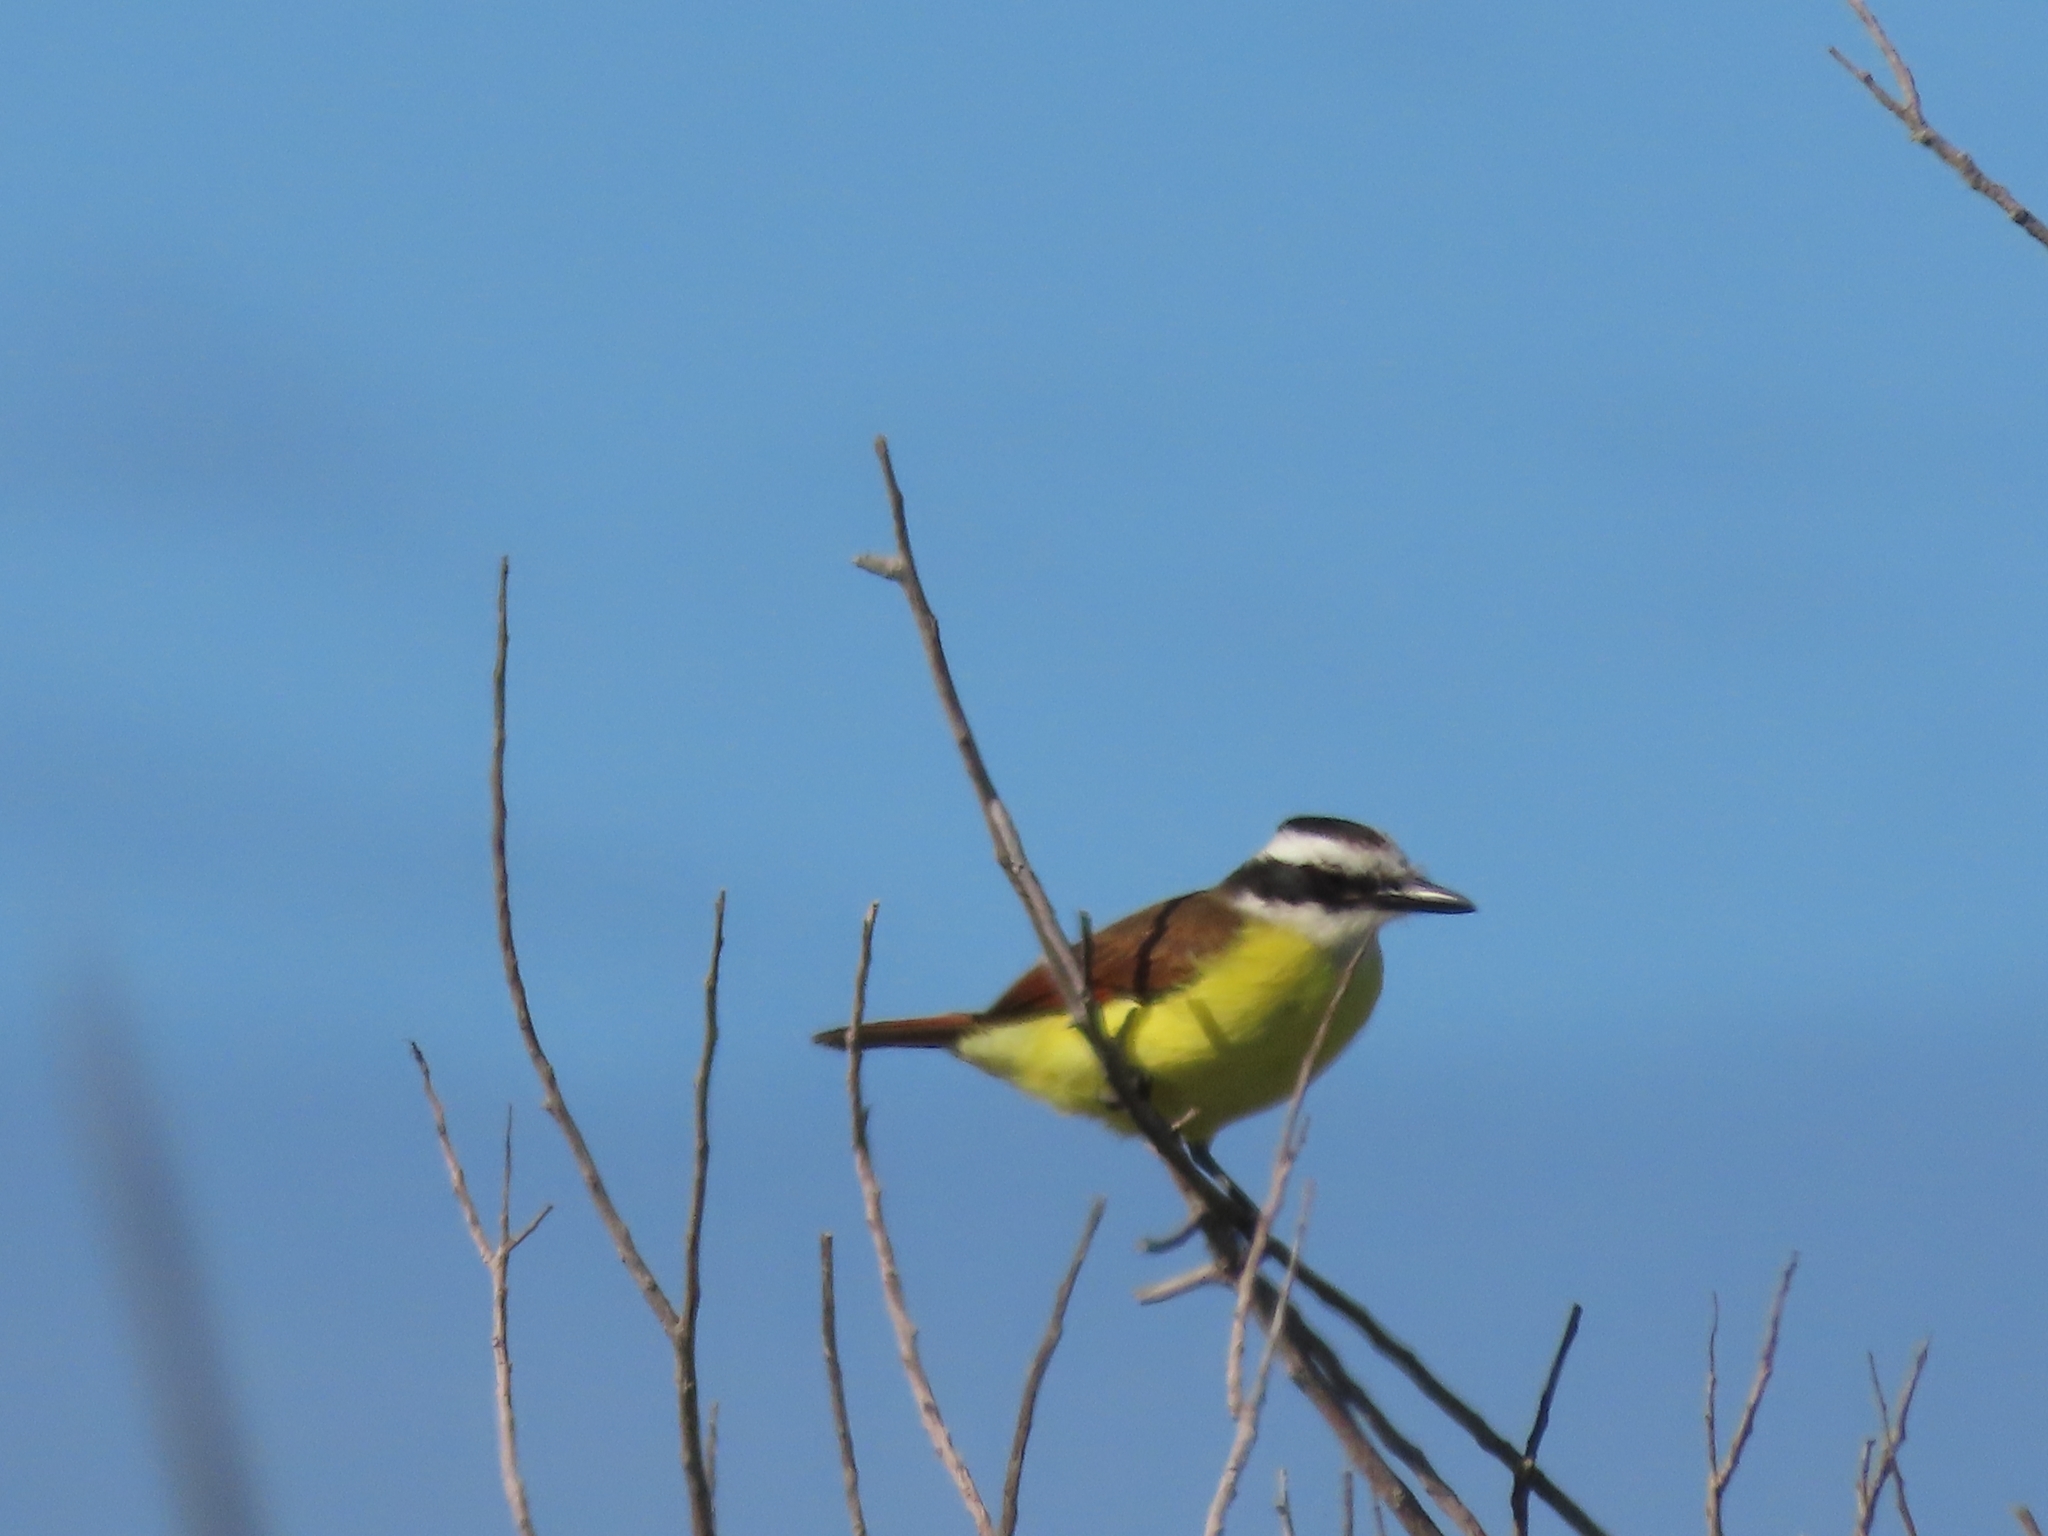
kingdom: Animalia
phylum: Chordata
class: Aves
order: Passeriformes
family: Tyrannidae
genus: Pitangus
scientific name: Pitangus sulphuratus
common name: Great kiskadee
